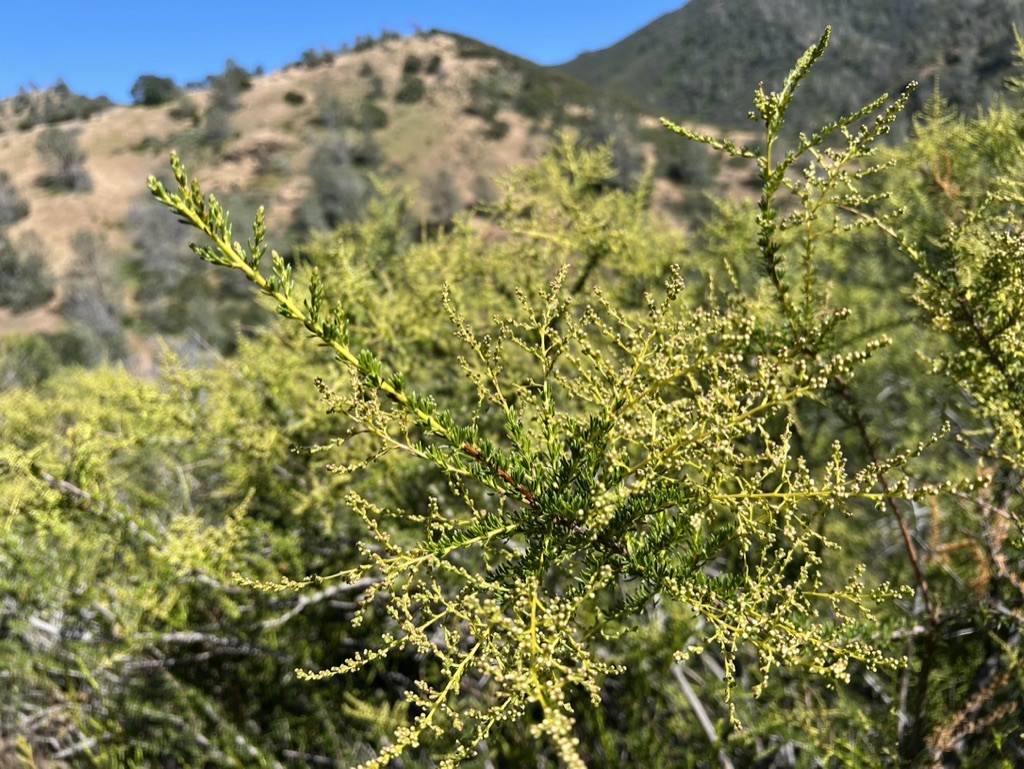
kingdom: Plantae
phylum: Tracheophyta
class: Magnoliopsida
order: Rosales
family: Rosaceae
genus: Adenostoma
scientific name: Adenostoma fasciculatum
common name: Chamise
